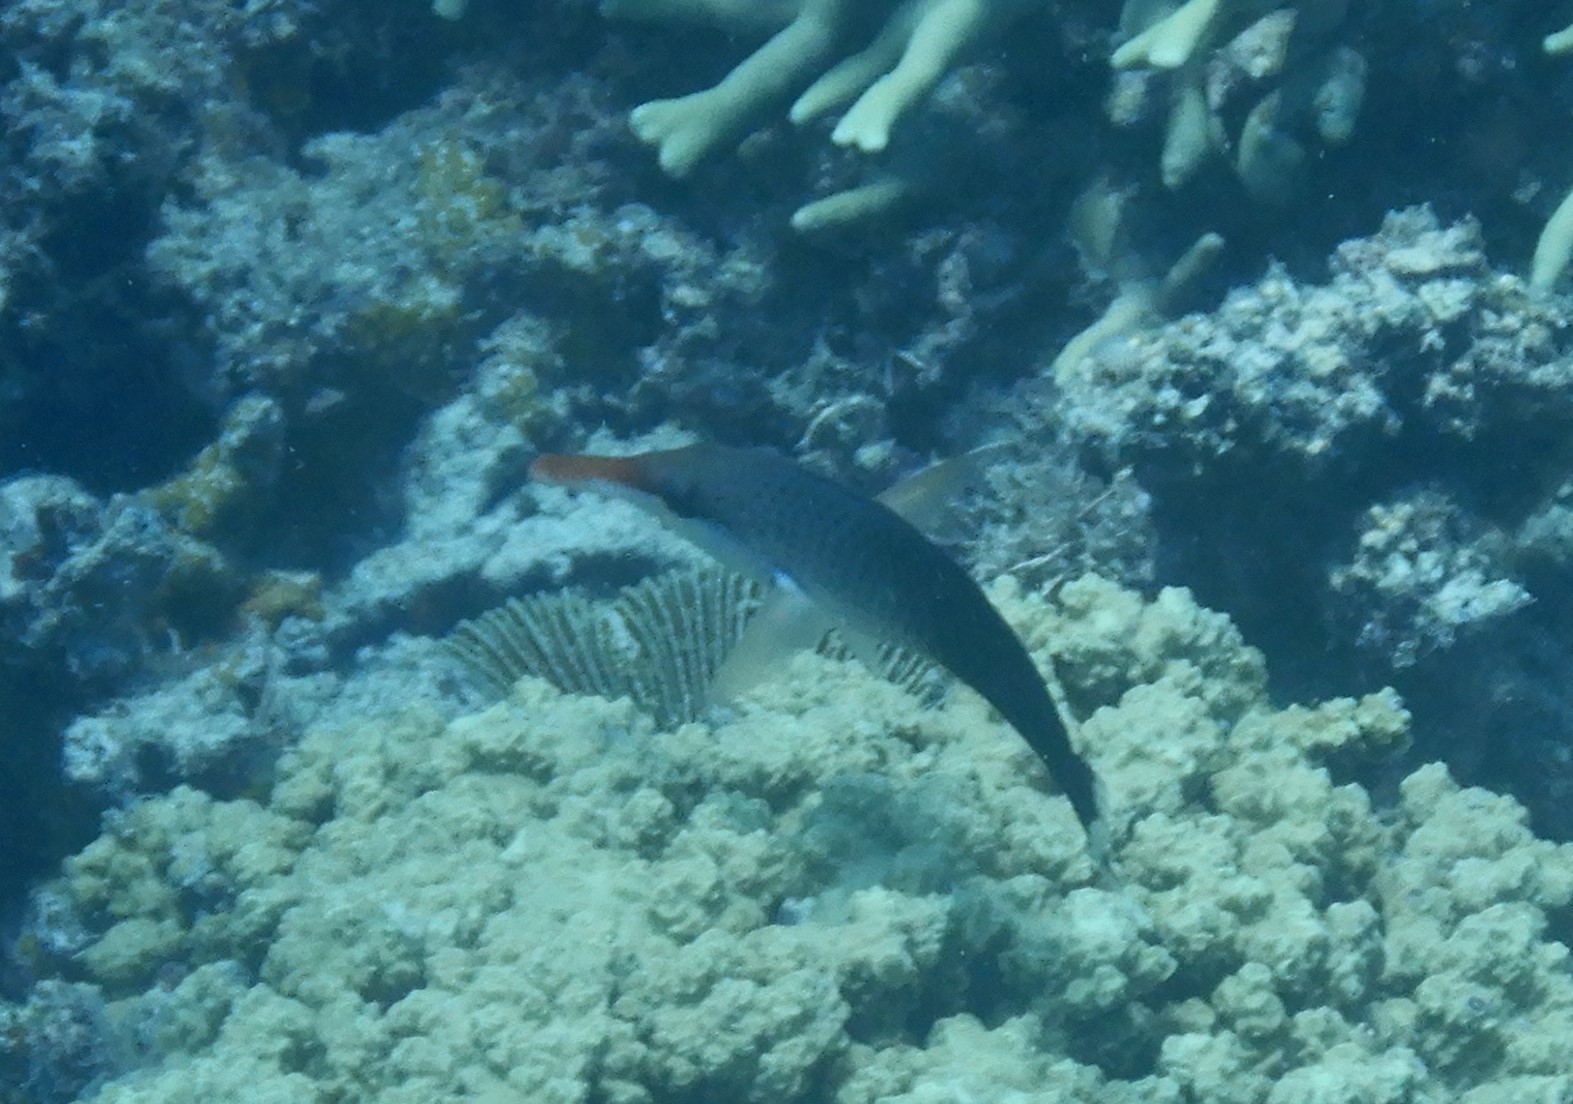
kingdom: Animalia
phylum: Chordata
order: Perciformes
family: Labridae
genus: Gomphosus
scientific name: Gomphosus varius
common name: Bird wrasse
